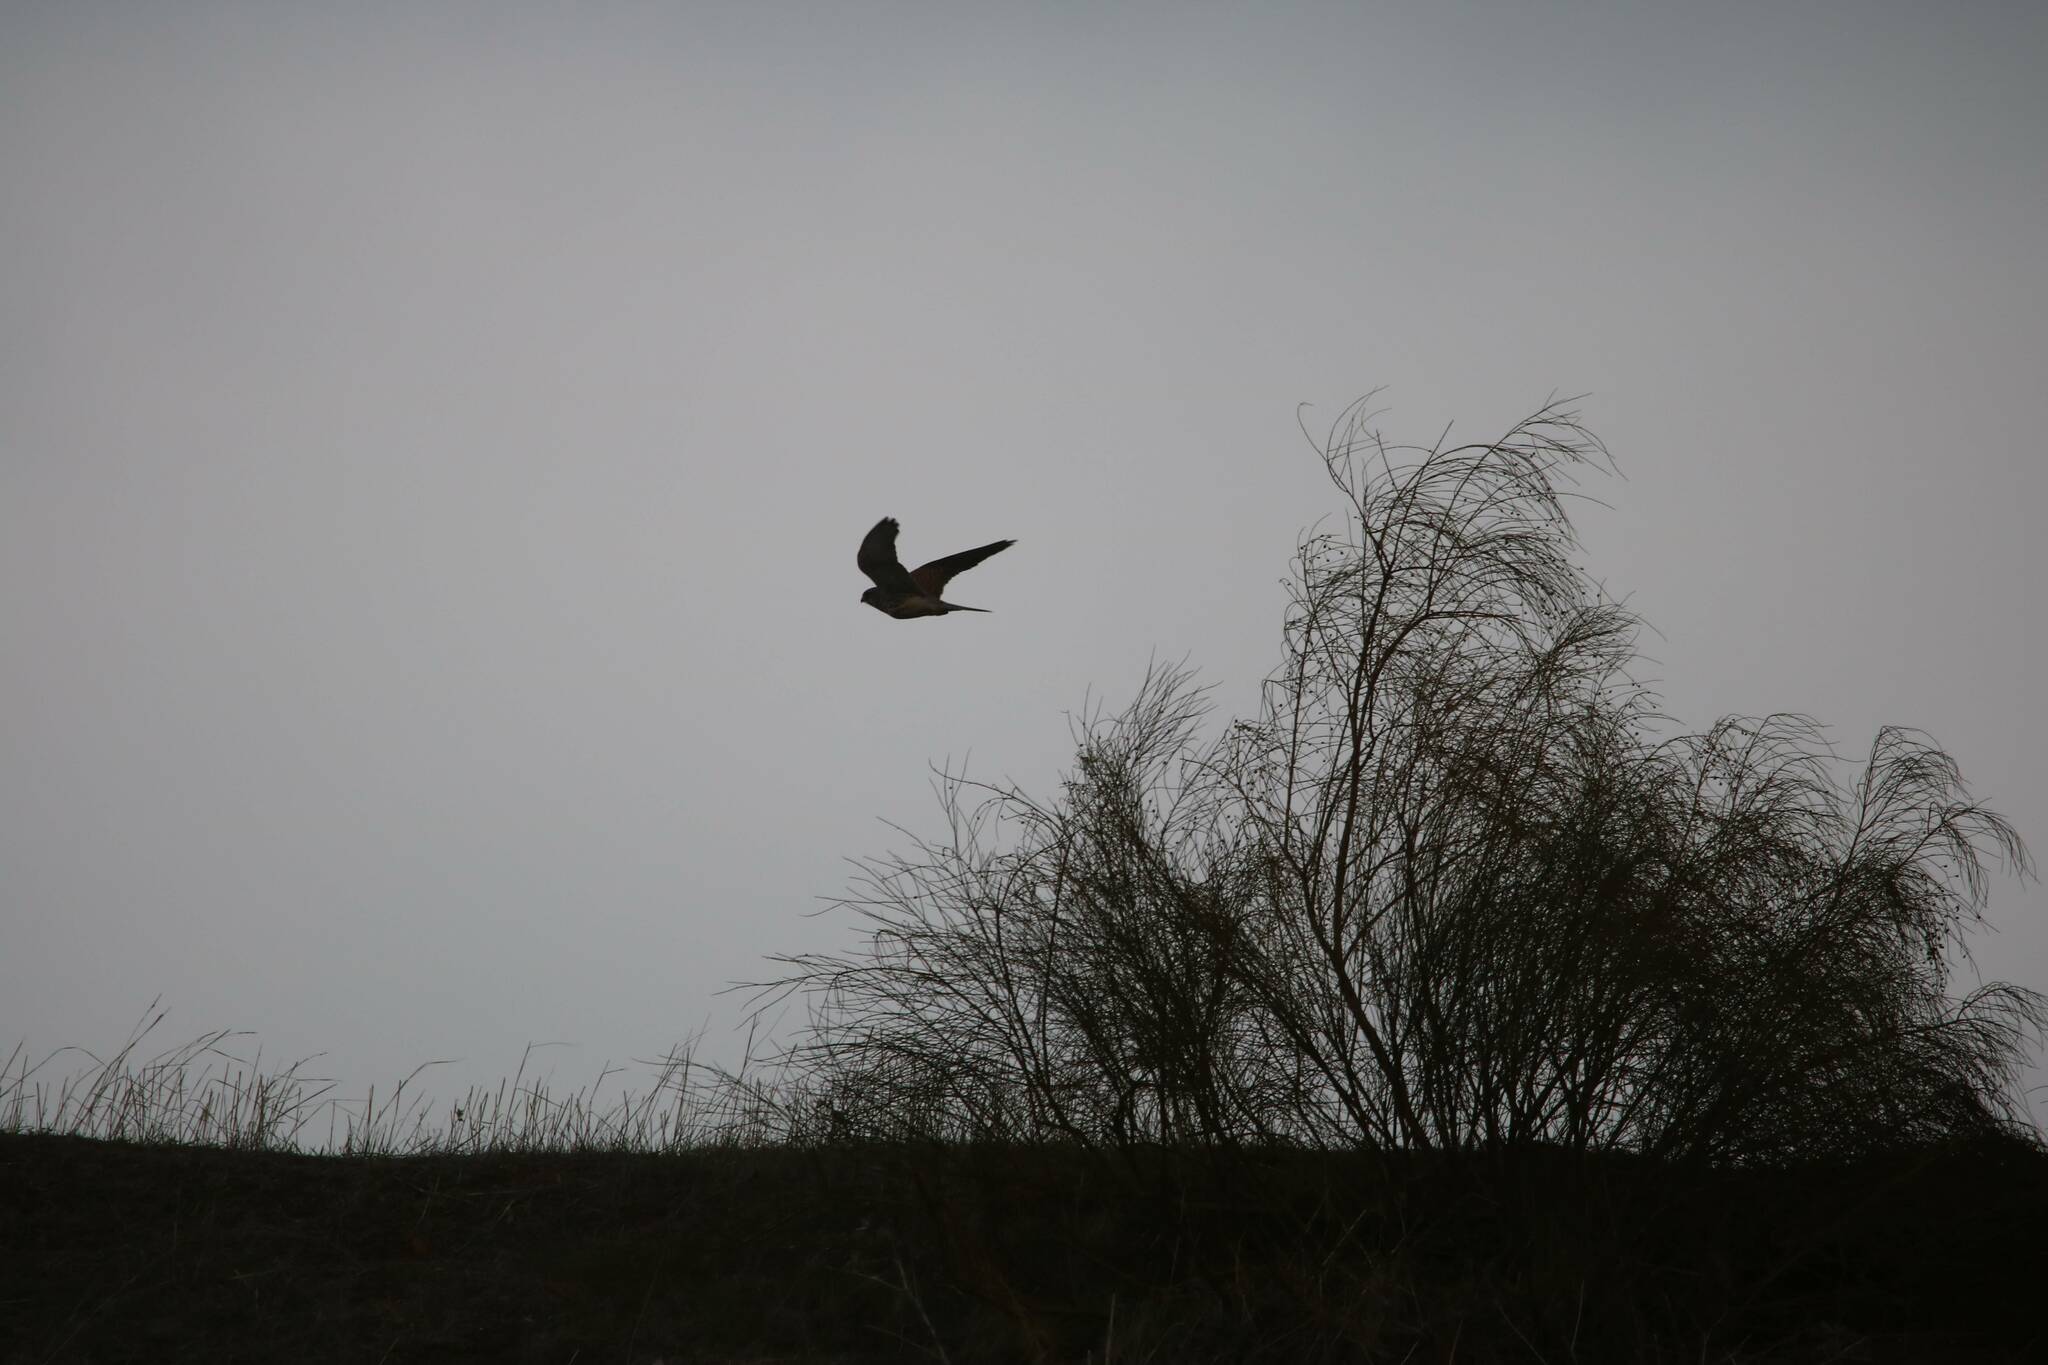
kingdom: Animalia
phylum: Chordata
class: Aves
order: Falconiformes
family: Falconidae
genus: Falco
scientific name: Falco tinnunculus
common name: Common kestrel
